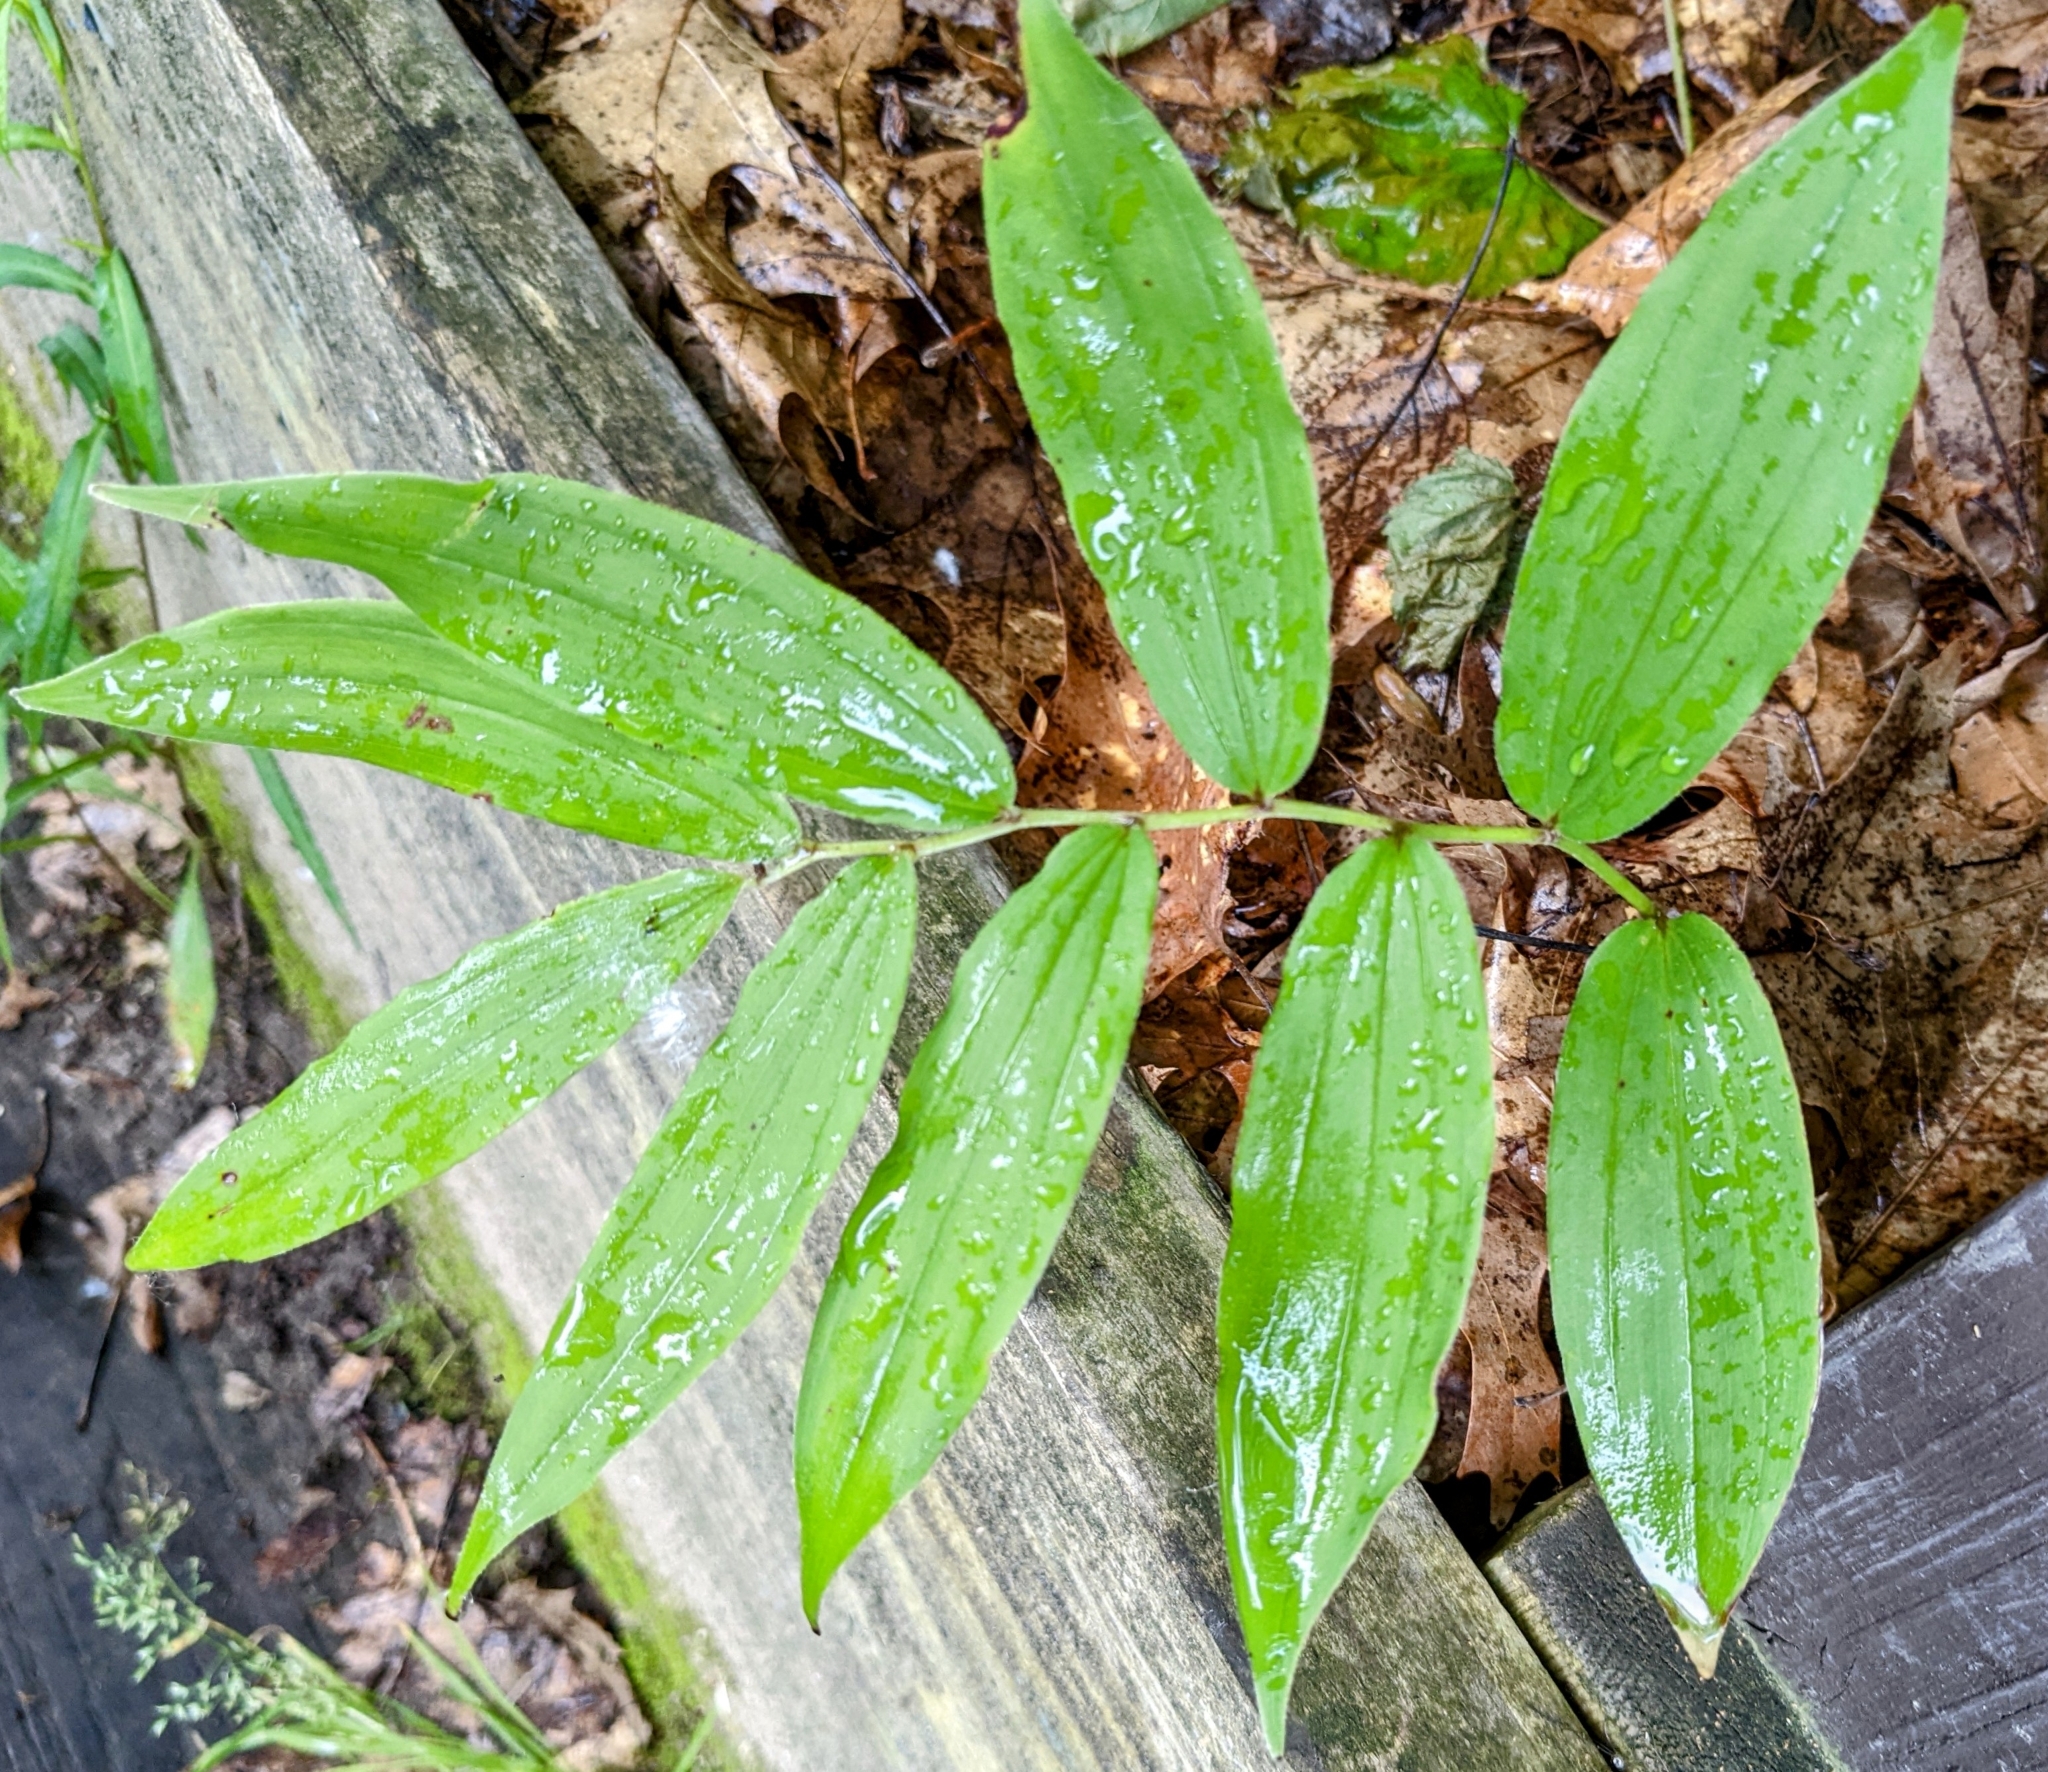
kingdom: Plantae
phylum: Tracheophyta
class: Liliopsida
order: Asparagales
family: Asparagaceae
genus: Maianthemum
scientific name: Maianthemum racemosum
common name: False spikenard
